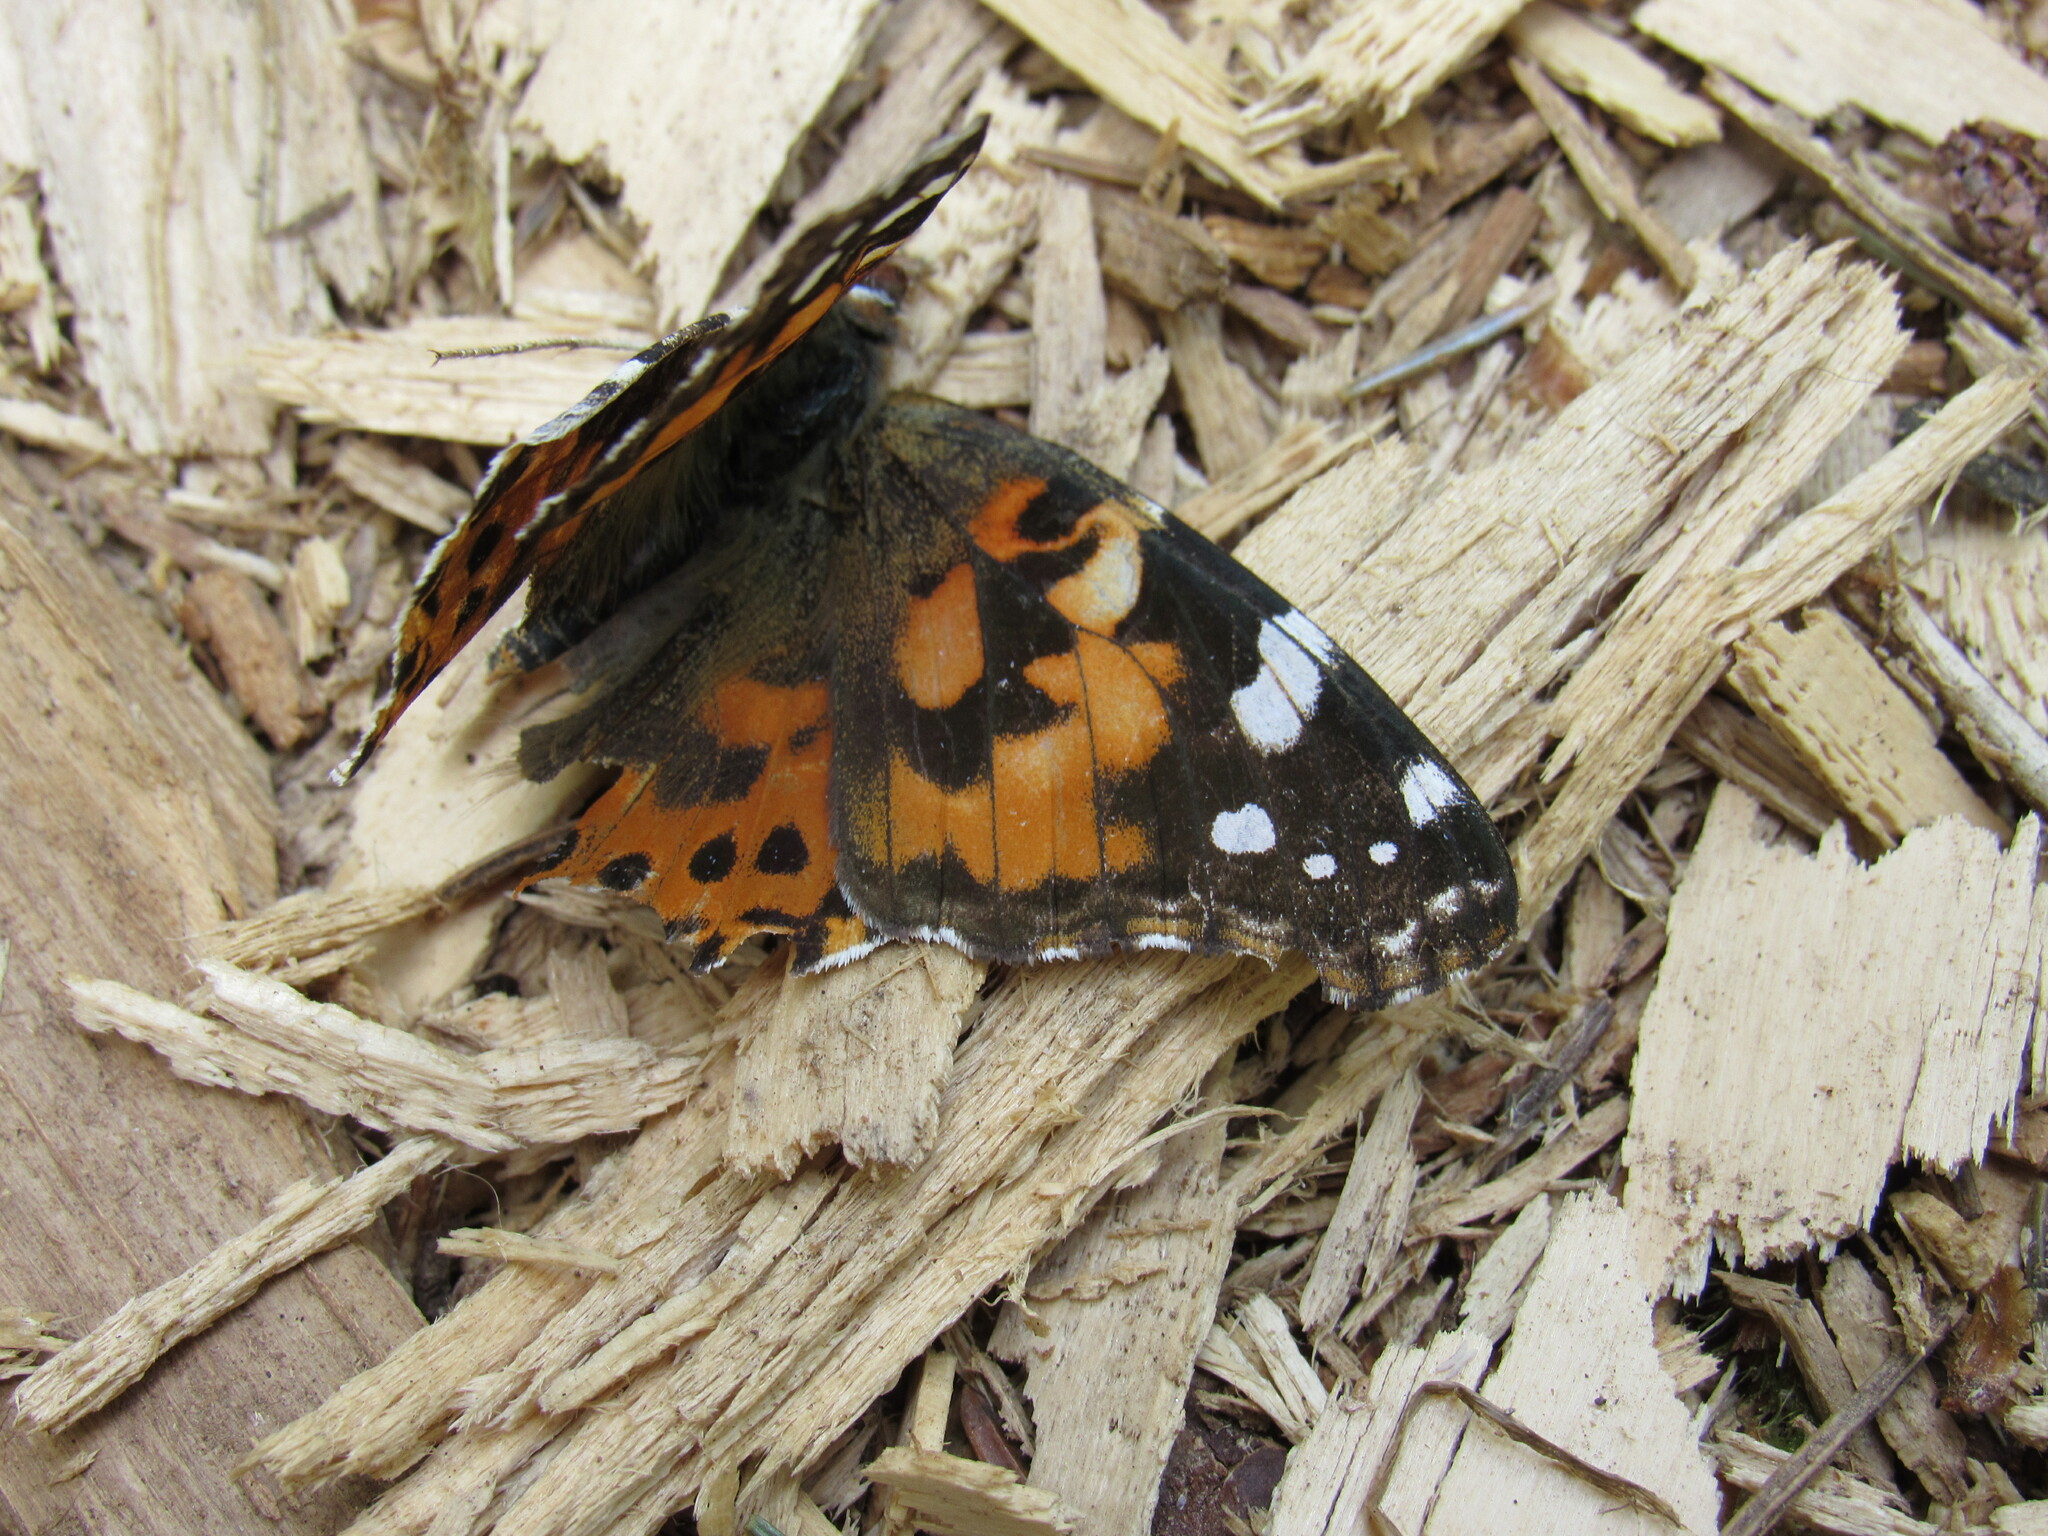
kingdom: Animalia
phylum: Arthropoda
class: Insecta
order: Lepidoptera
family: Nymphalidae
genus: Vanessa
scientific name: Vanessa cardui
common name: Painted lady
